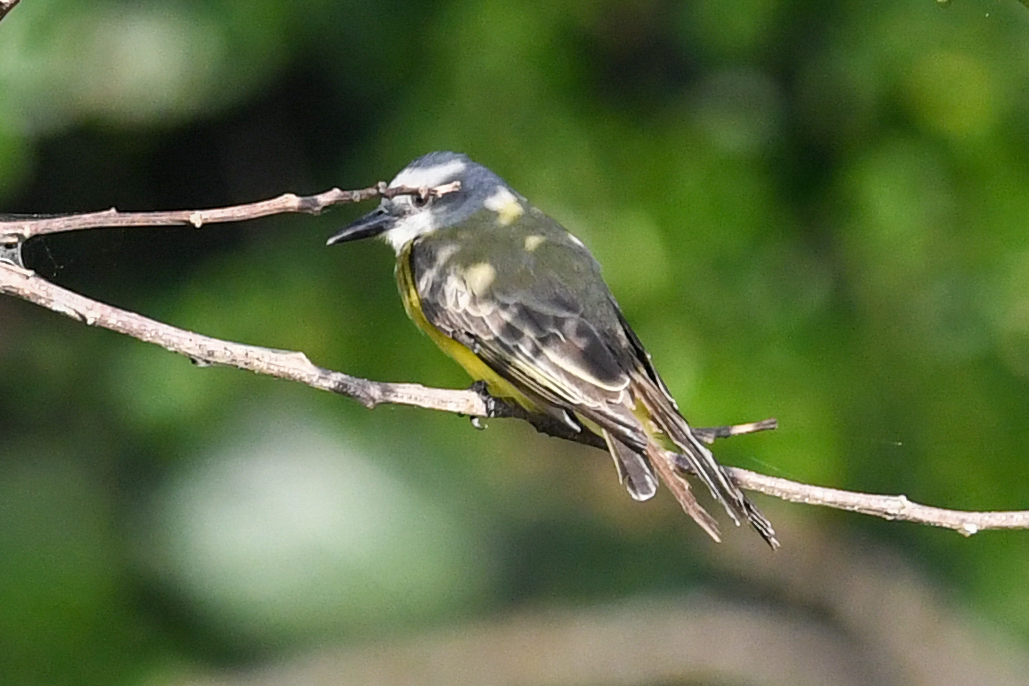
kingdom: Animalia
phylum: Chordata
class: Aves
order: Passeriformes
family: Tyrannidae
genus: Tyrannus
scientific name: Tyrannus melancholicus
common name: Tropical kingbird
